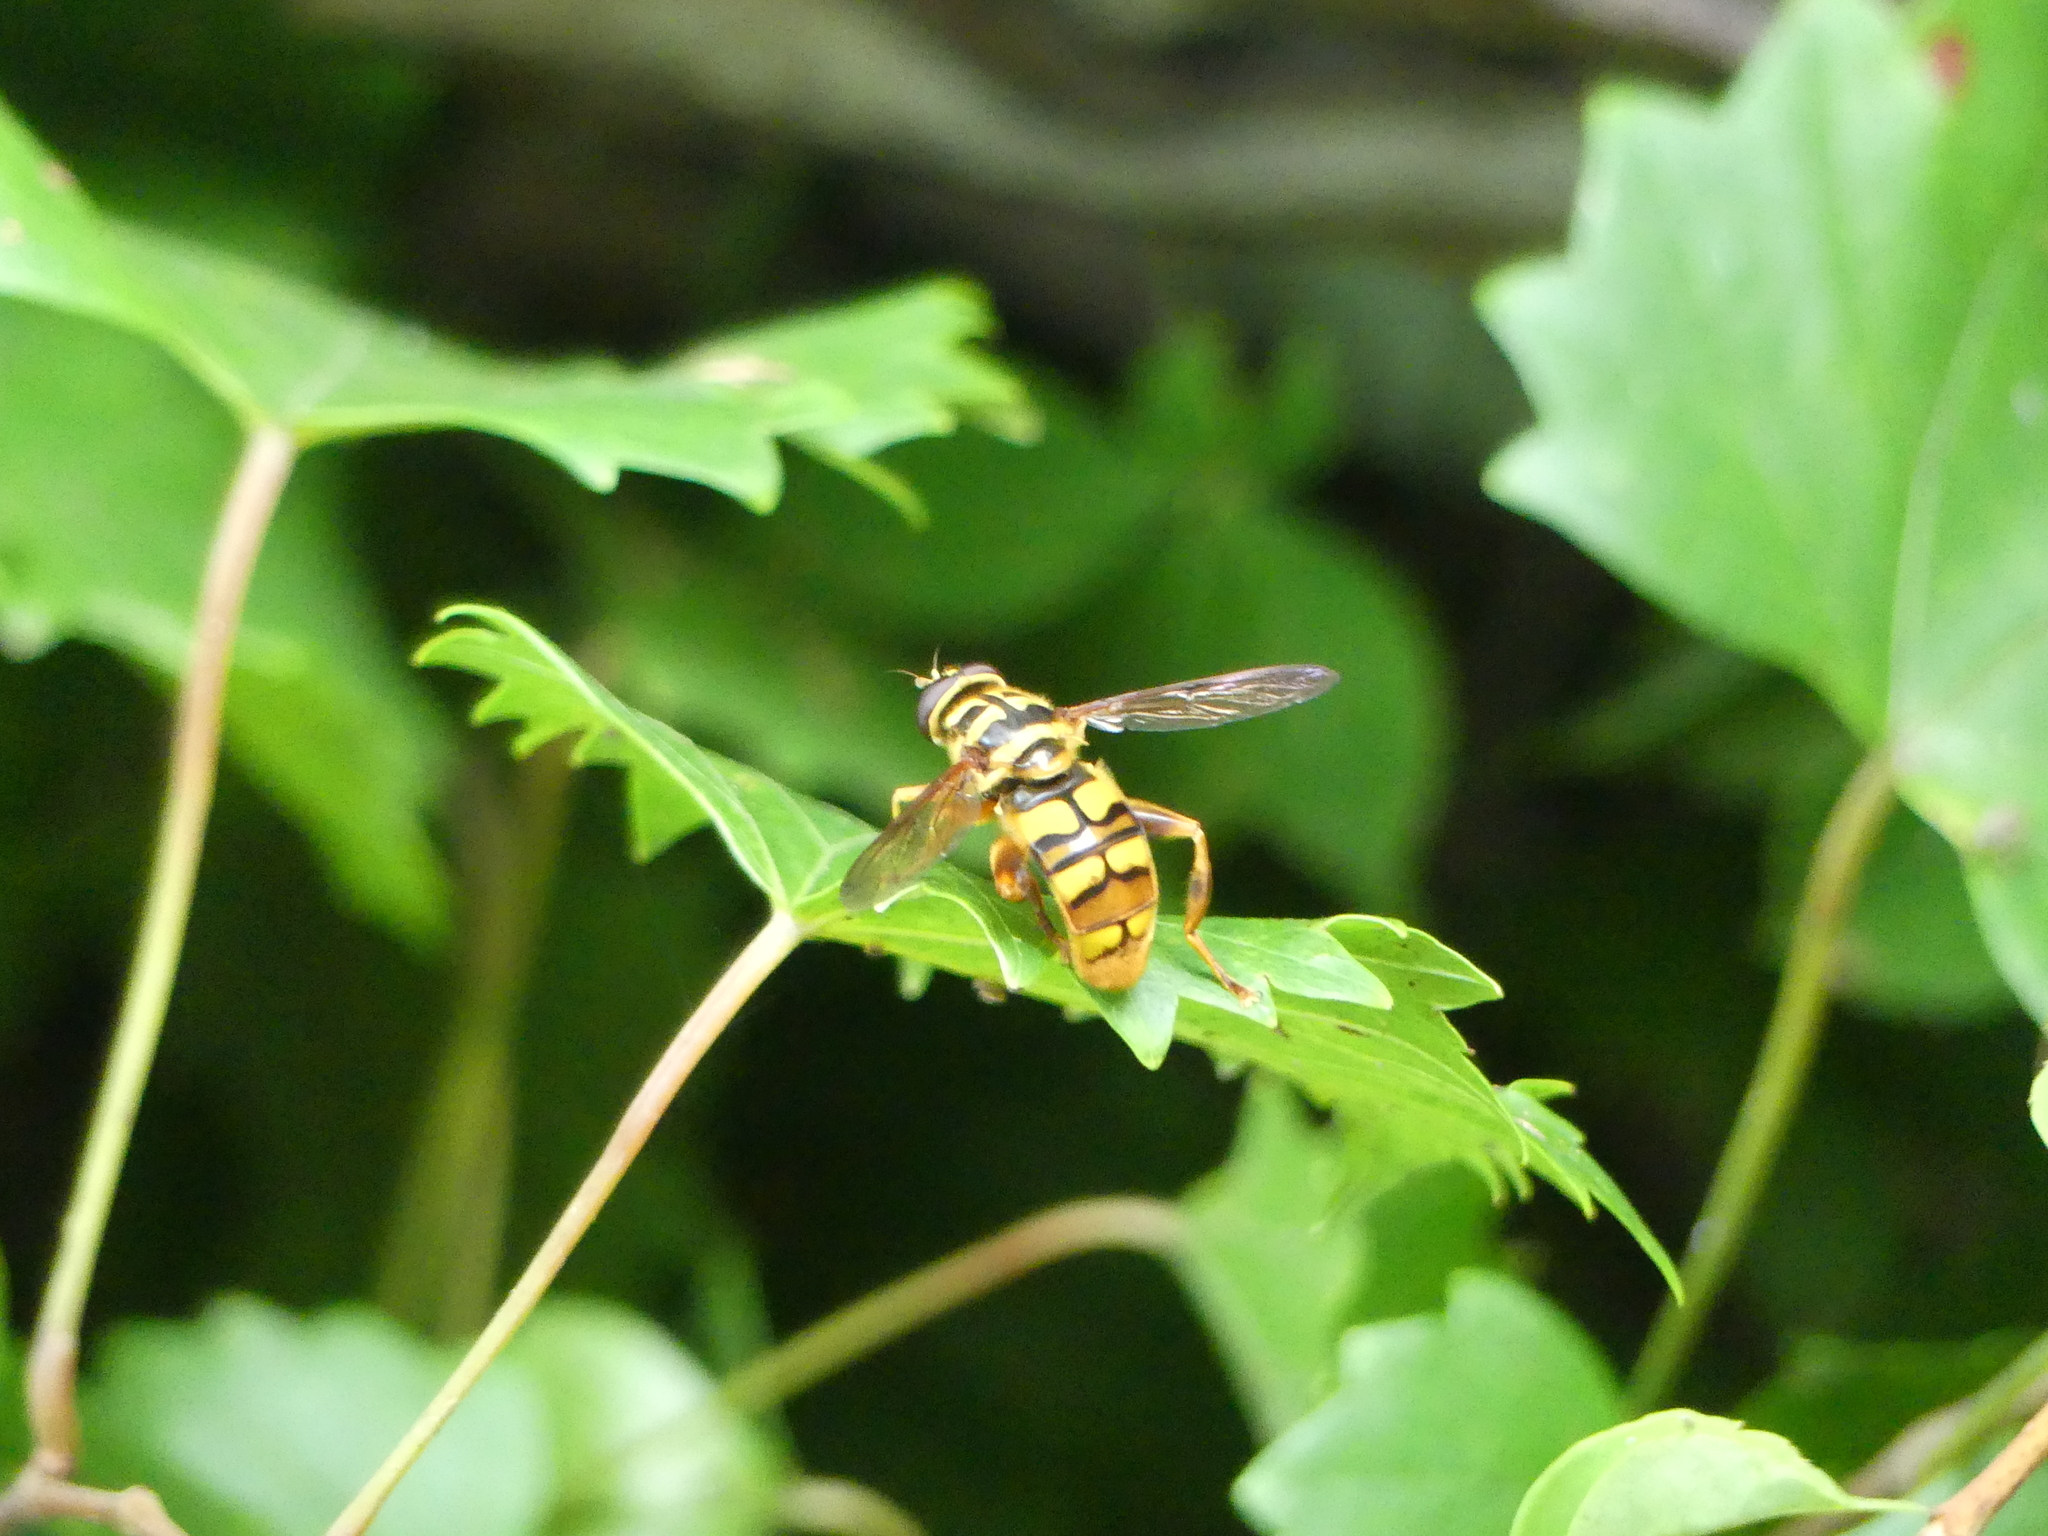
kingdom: Animalia
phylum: Arthropoda
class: Insecta
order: Diptera
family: Syrphidae
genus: Milesia
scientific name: Milesia virginiensis
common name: Virginia giant
